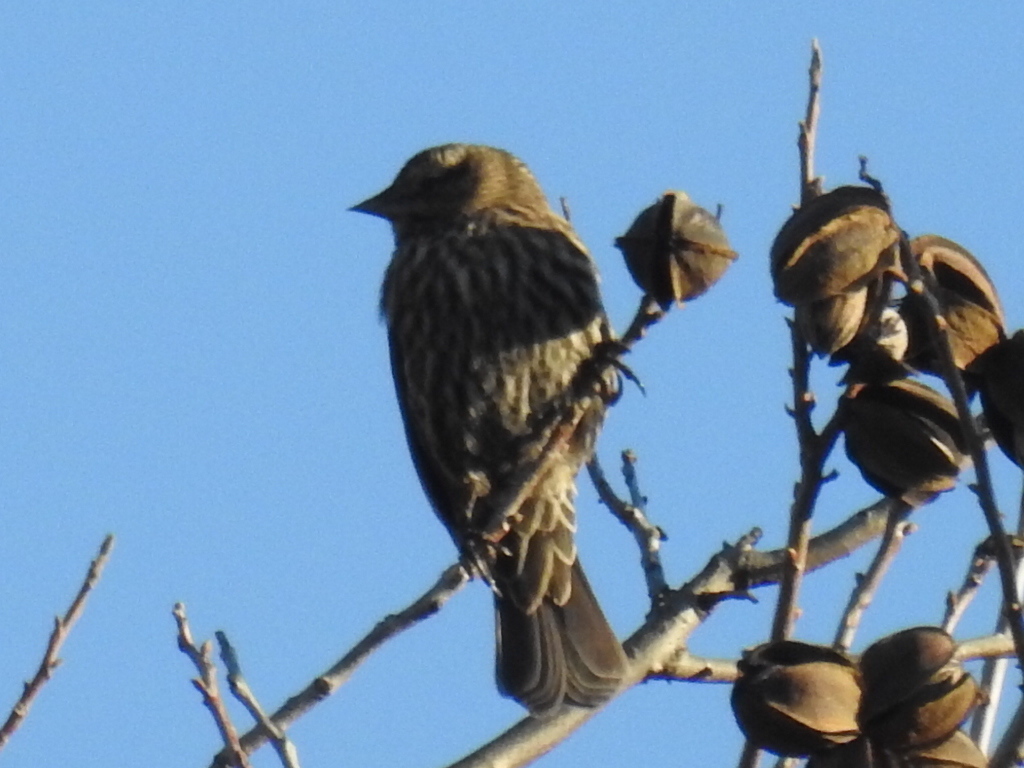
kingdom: Animalia
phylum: Chordata
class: Aves
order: Passeriformes
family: Icteridae
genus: Agelaius
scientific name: Agelaius phoeniceus
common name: Red-winged blackbird
